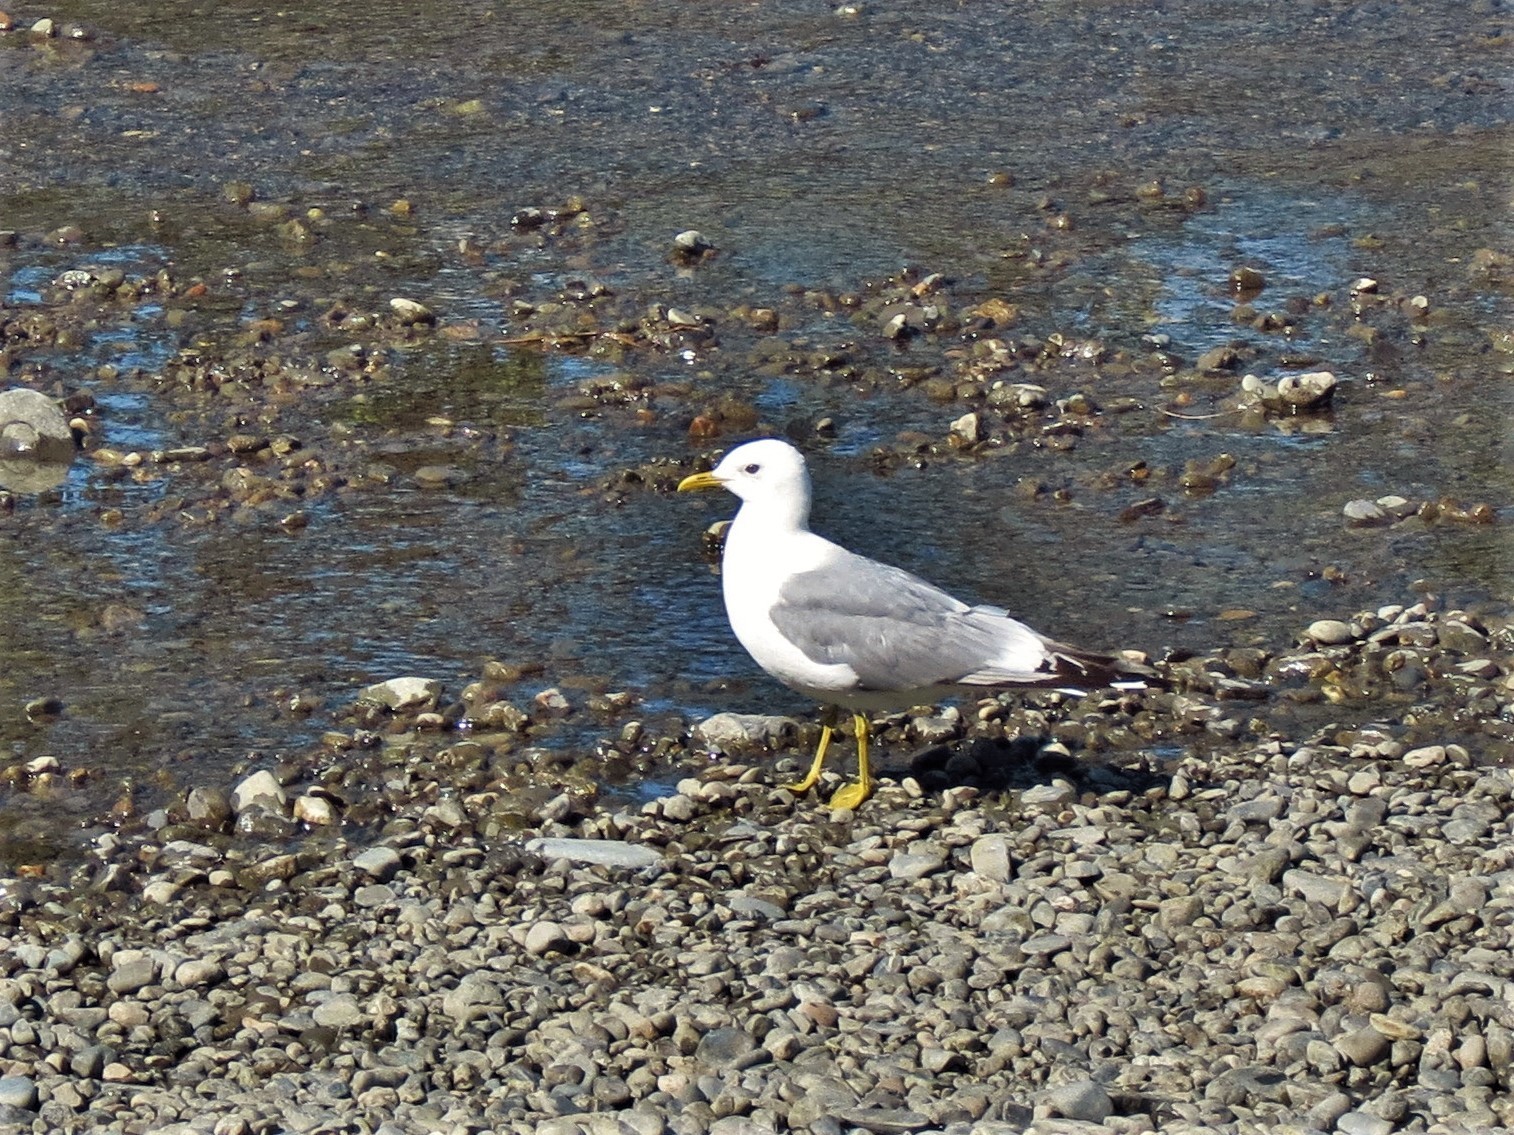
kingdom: Animalia
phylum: Chordata
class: Aves
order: Charadriiformes
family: Laridae
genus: Larus
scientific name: Larus brachyrhynchus
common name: Short-billed gull
